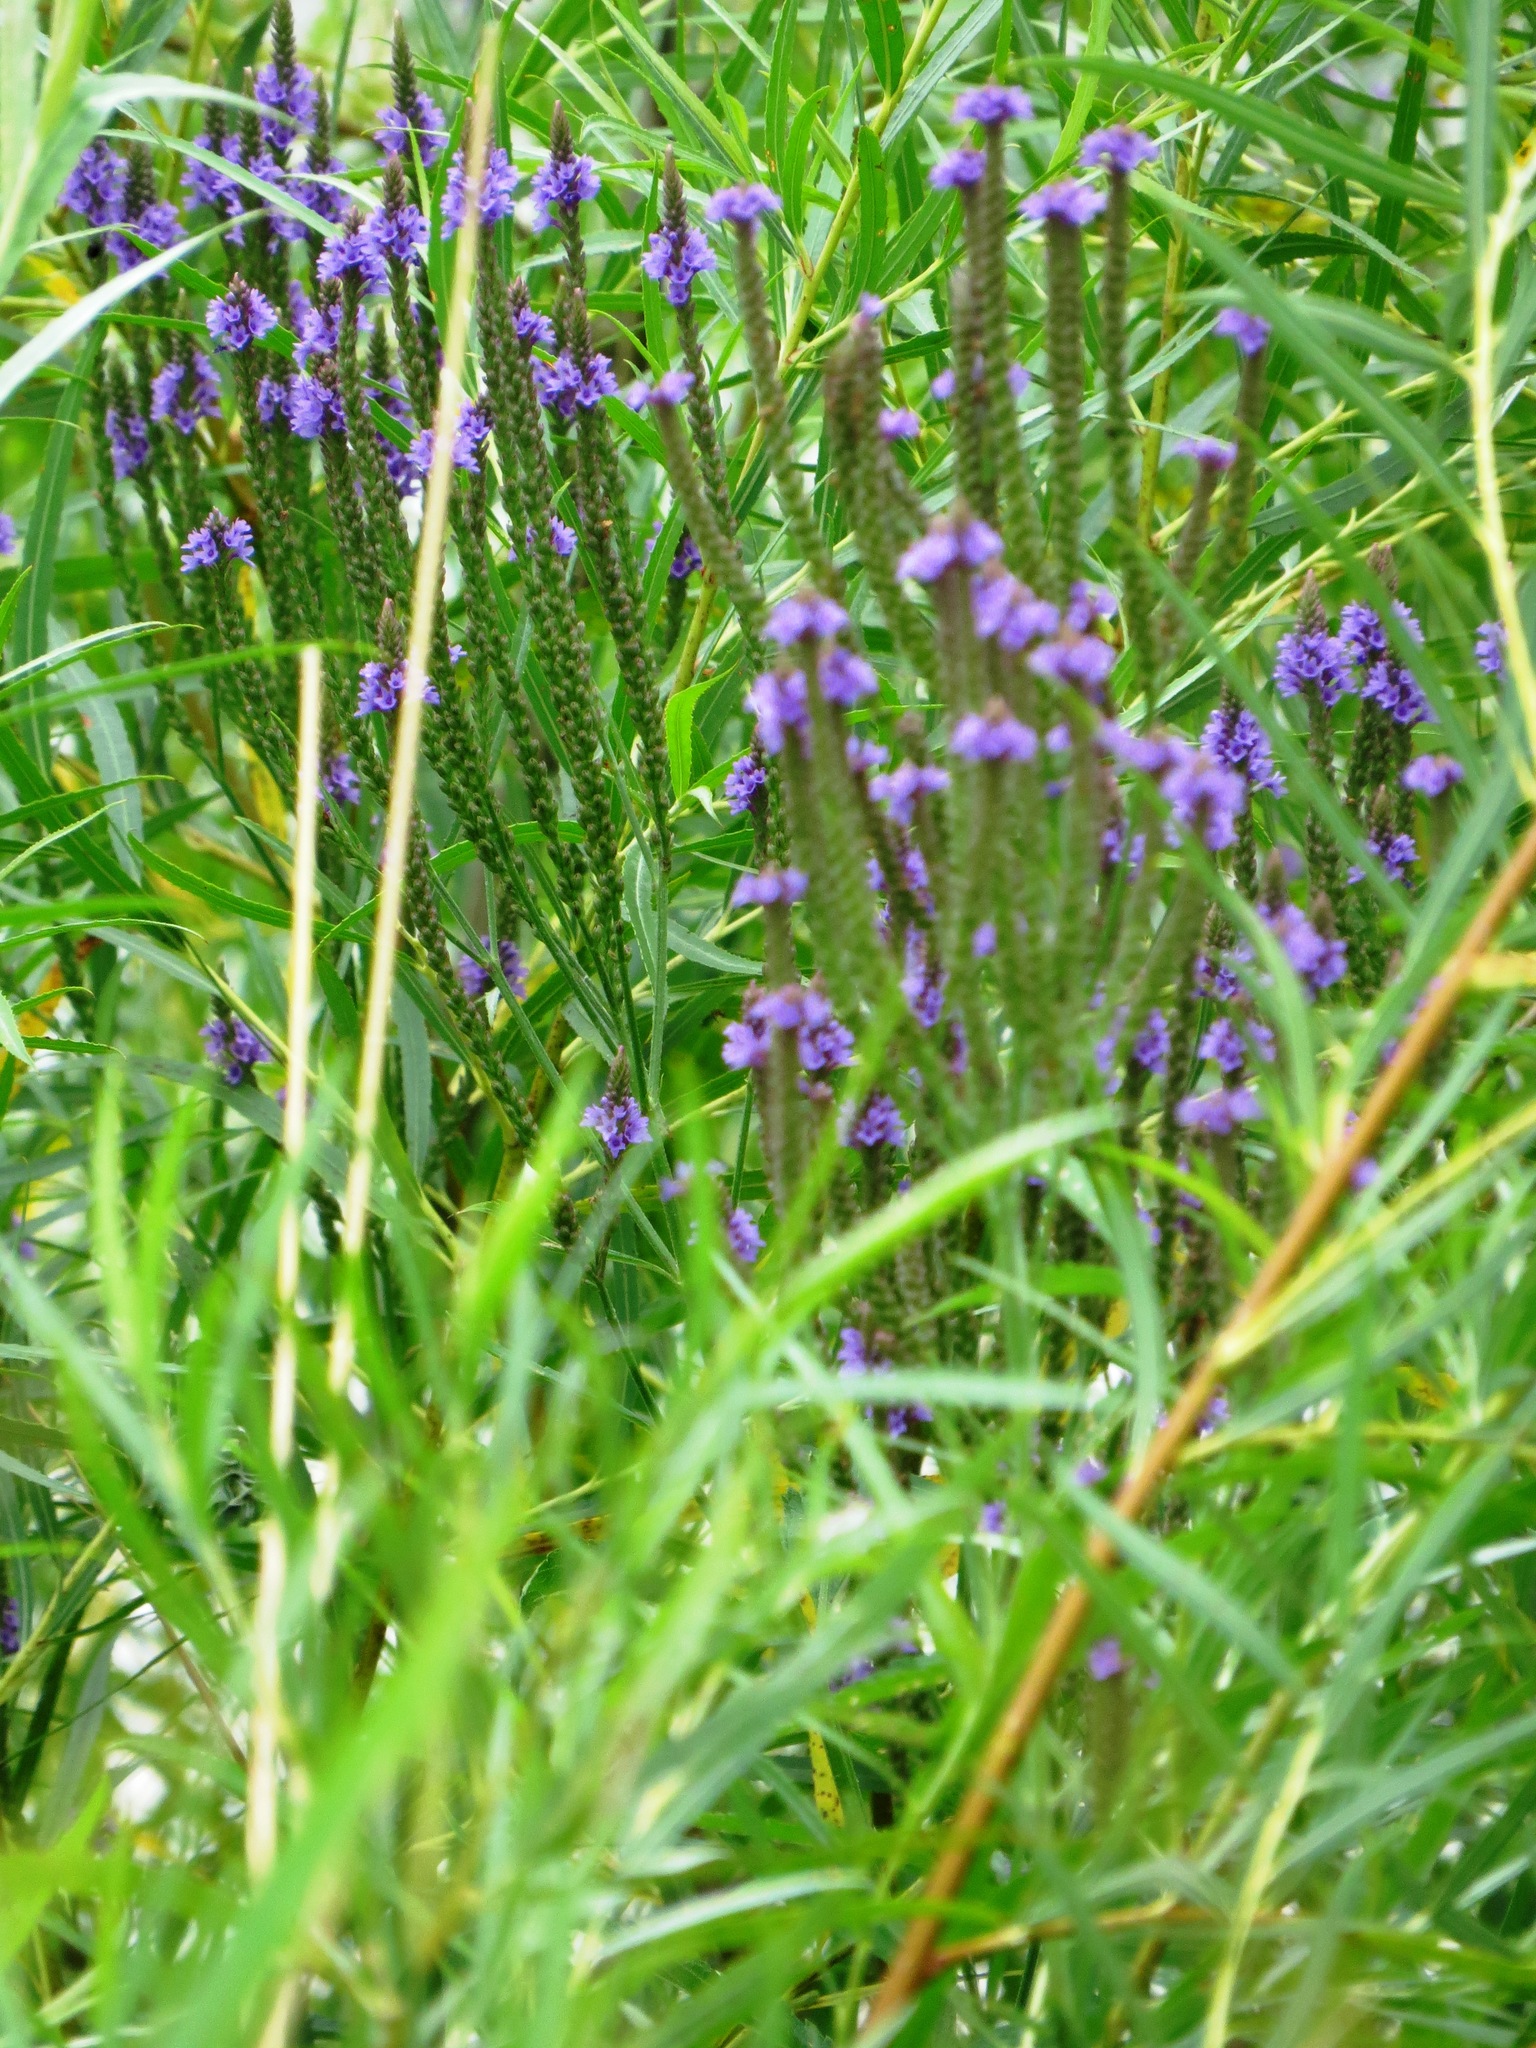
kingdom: Plantae
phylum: Tracheophyta
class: Magnoliopsida
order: Lamiales
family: Verbenaceae
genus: Verbena
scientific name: Verbena hastata
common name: American blue vervain
